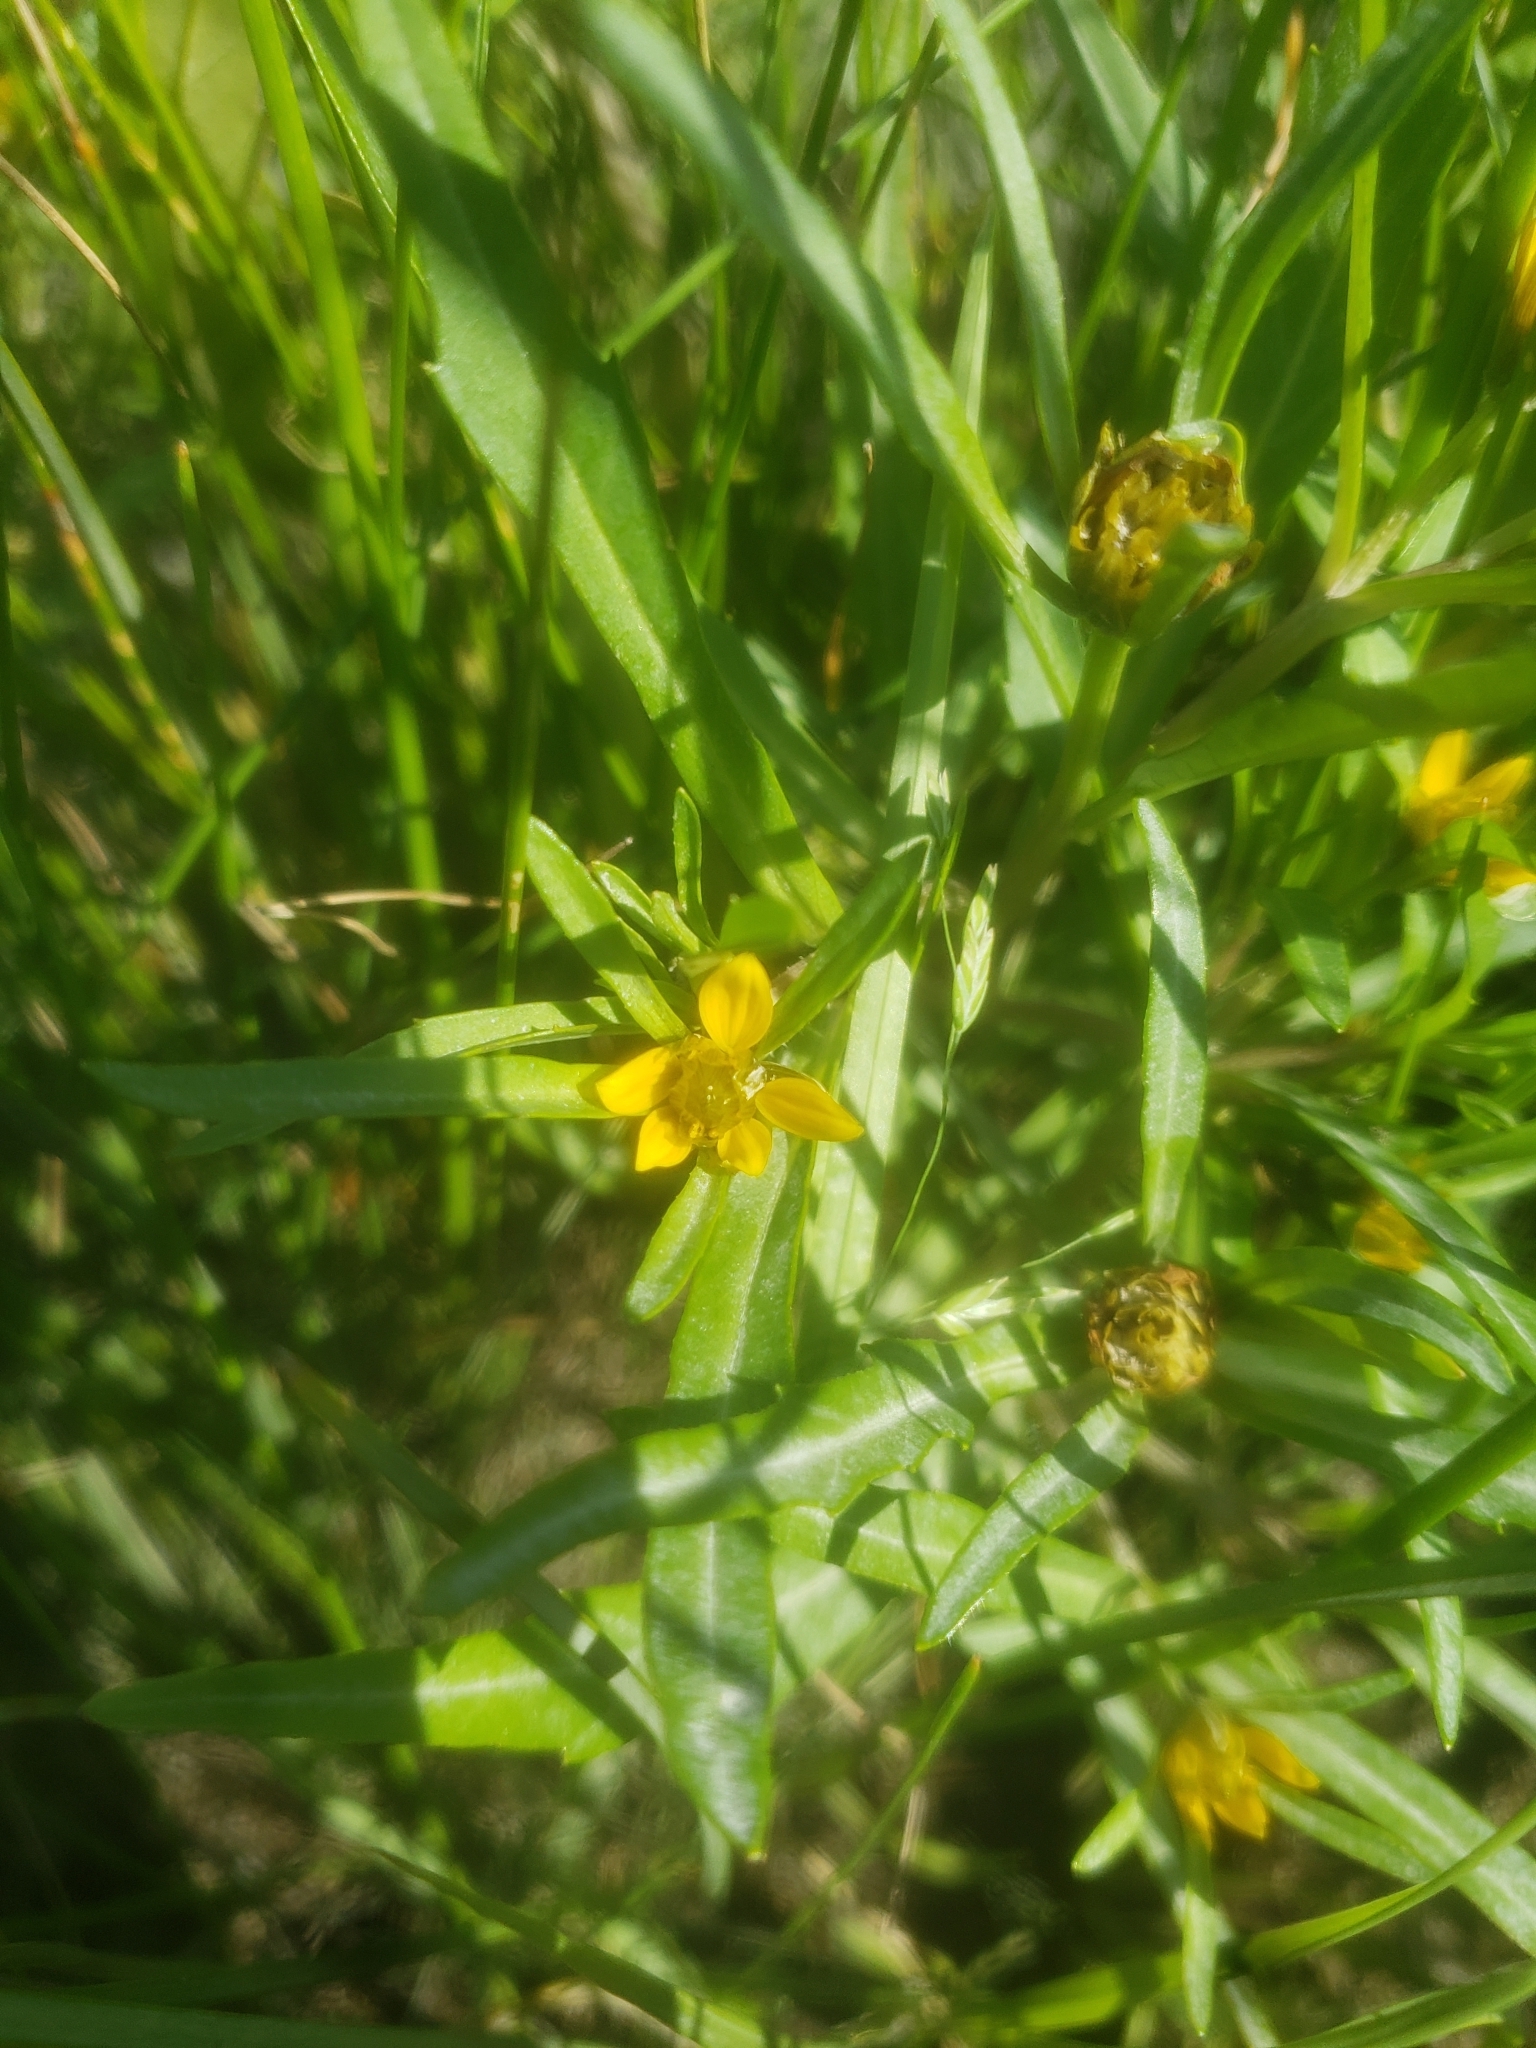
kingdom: Plantae
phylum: Tracheophyta
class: Magnoliopsida
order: Asterales
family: Asteraceae
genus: Bidens
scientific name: Bidens hyperborea
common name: Coastal beggarticks
